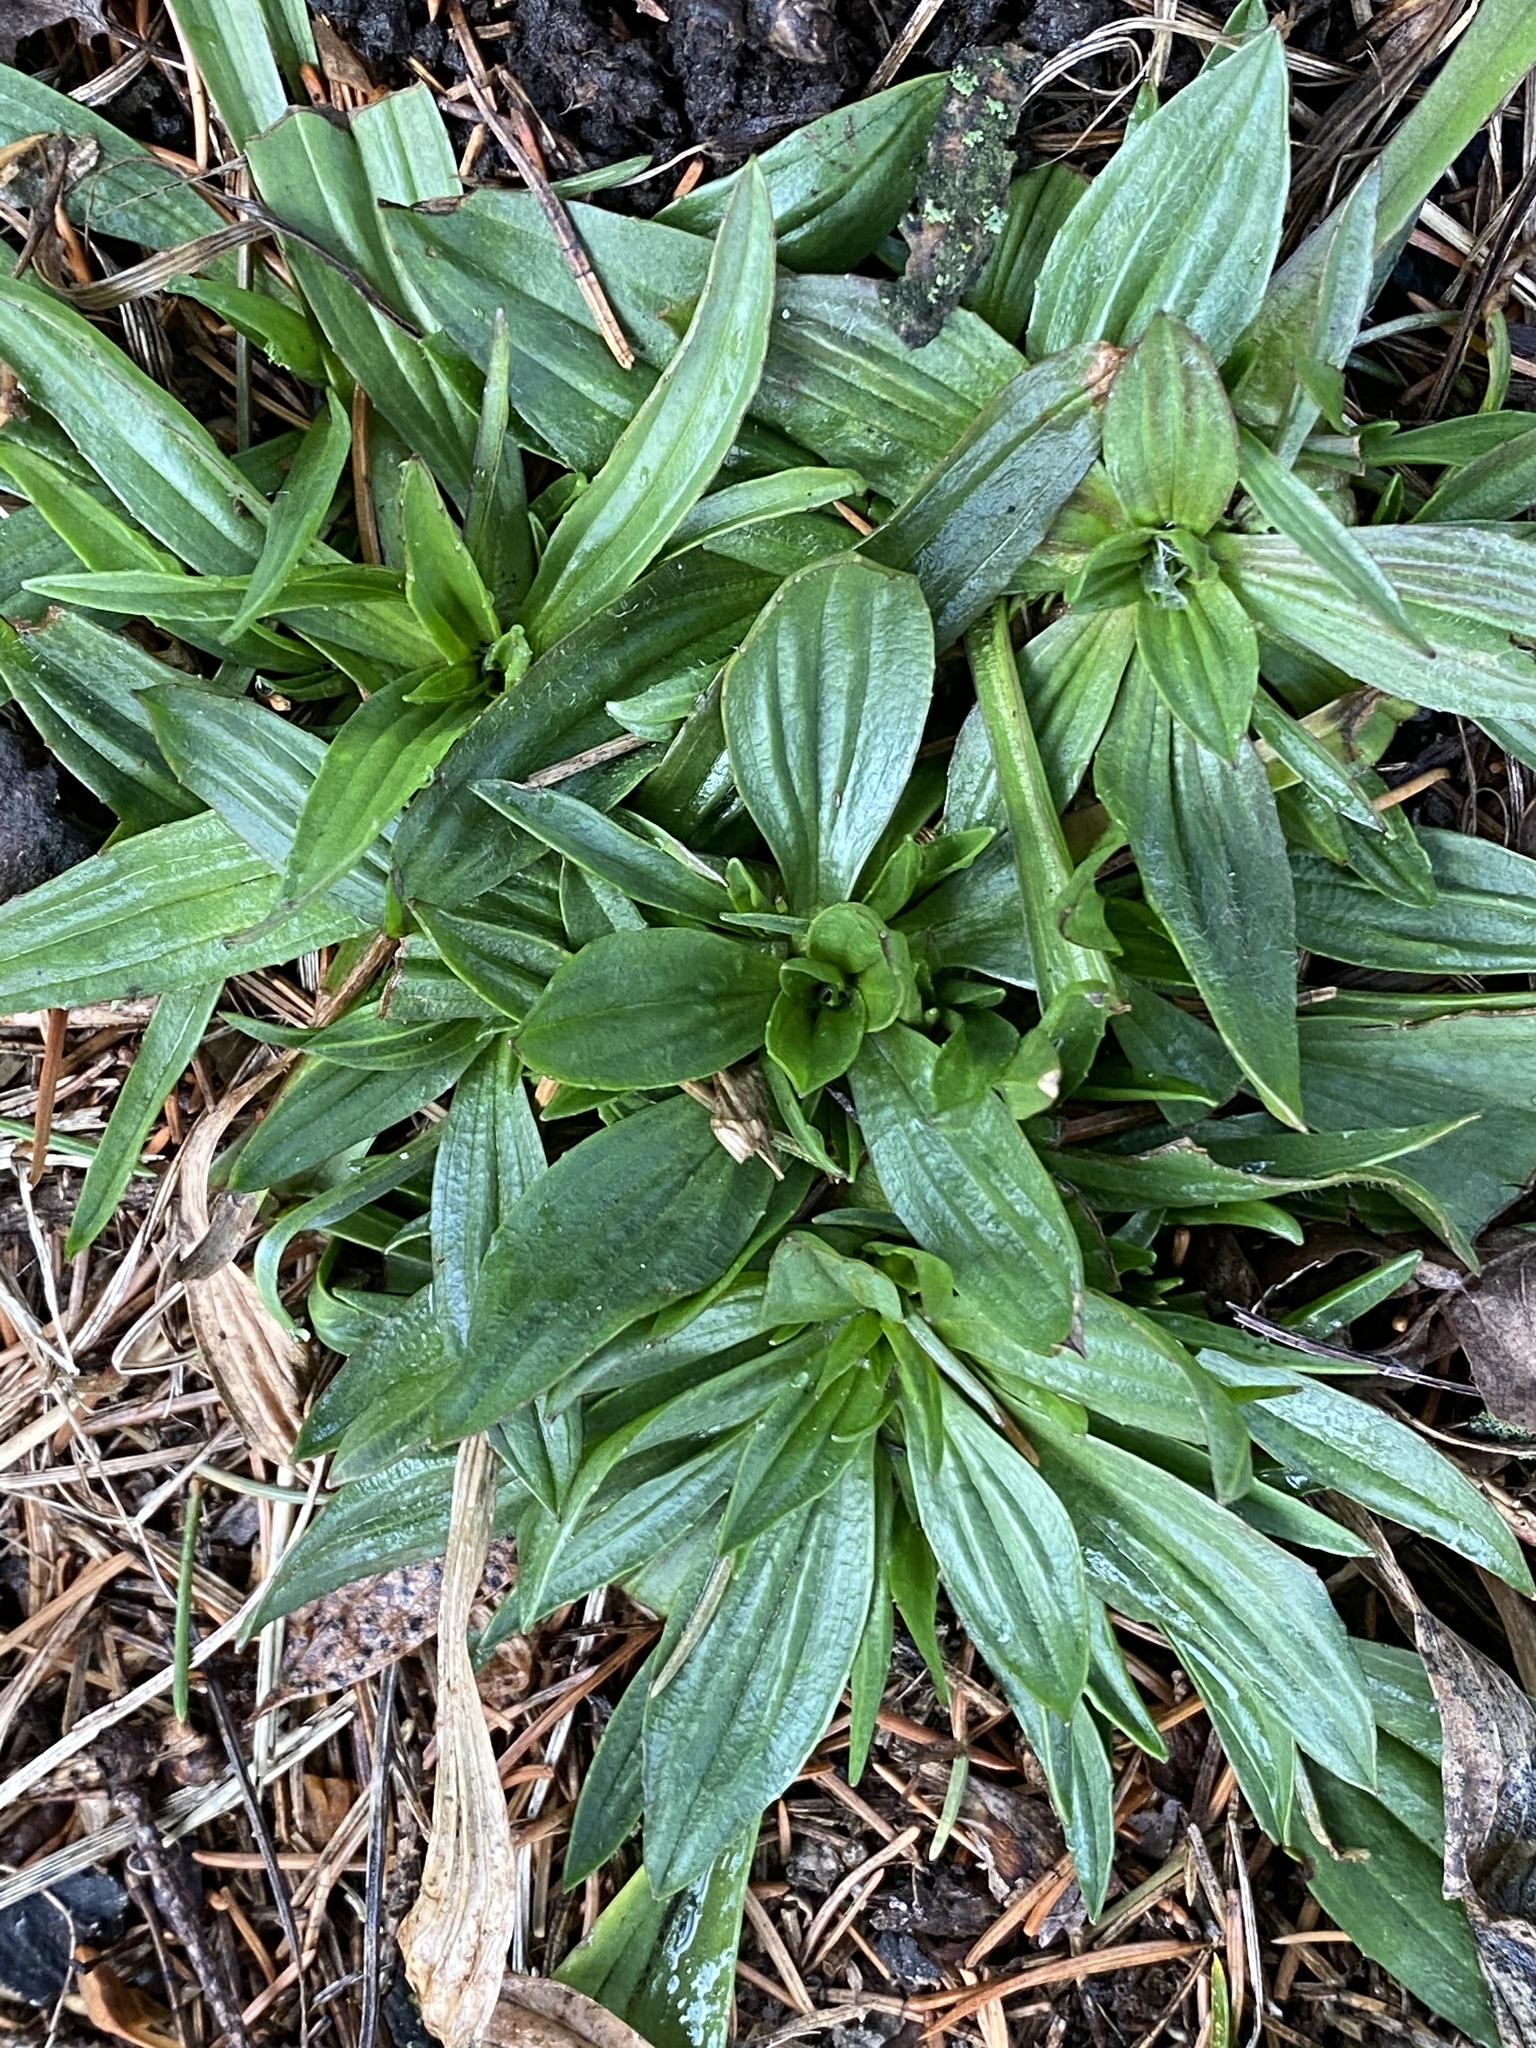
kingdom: Plantae
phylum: Tracheophyta
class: Magnoliopsida
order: Lamiales
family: Plantaginaceae
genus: Plantago
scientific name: Plantago lanceolata
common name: Ribwort plantain
